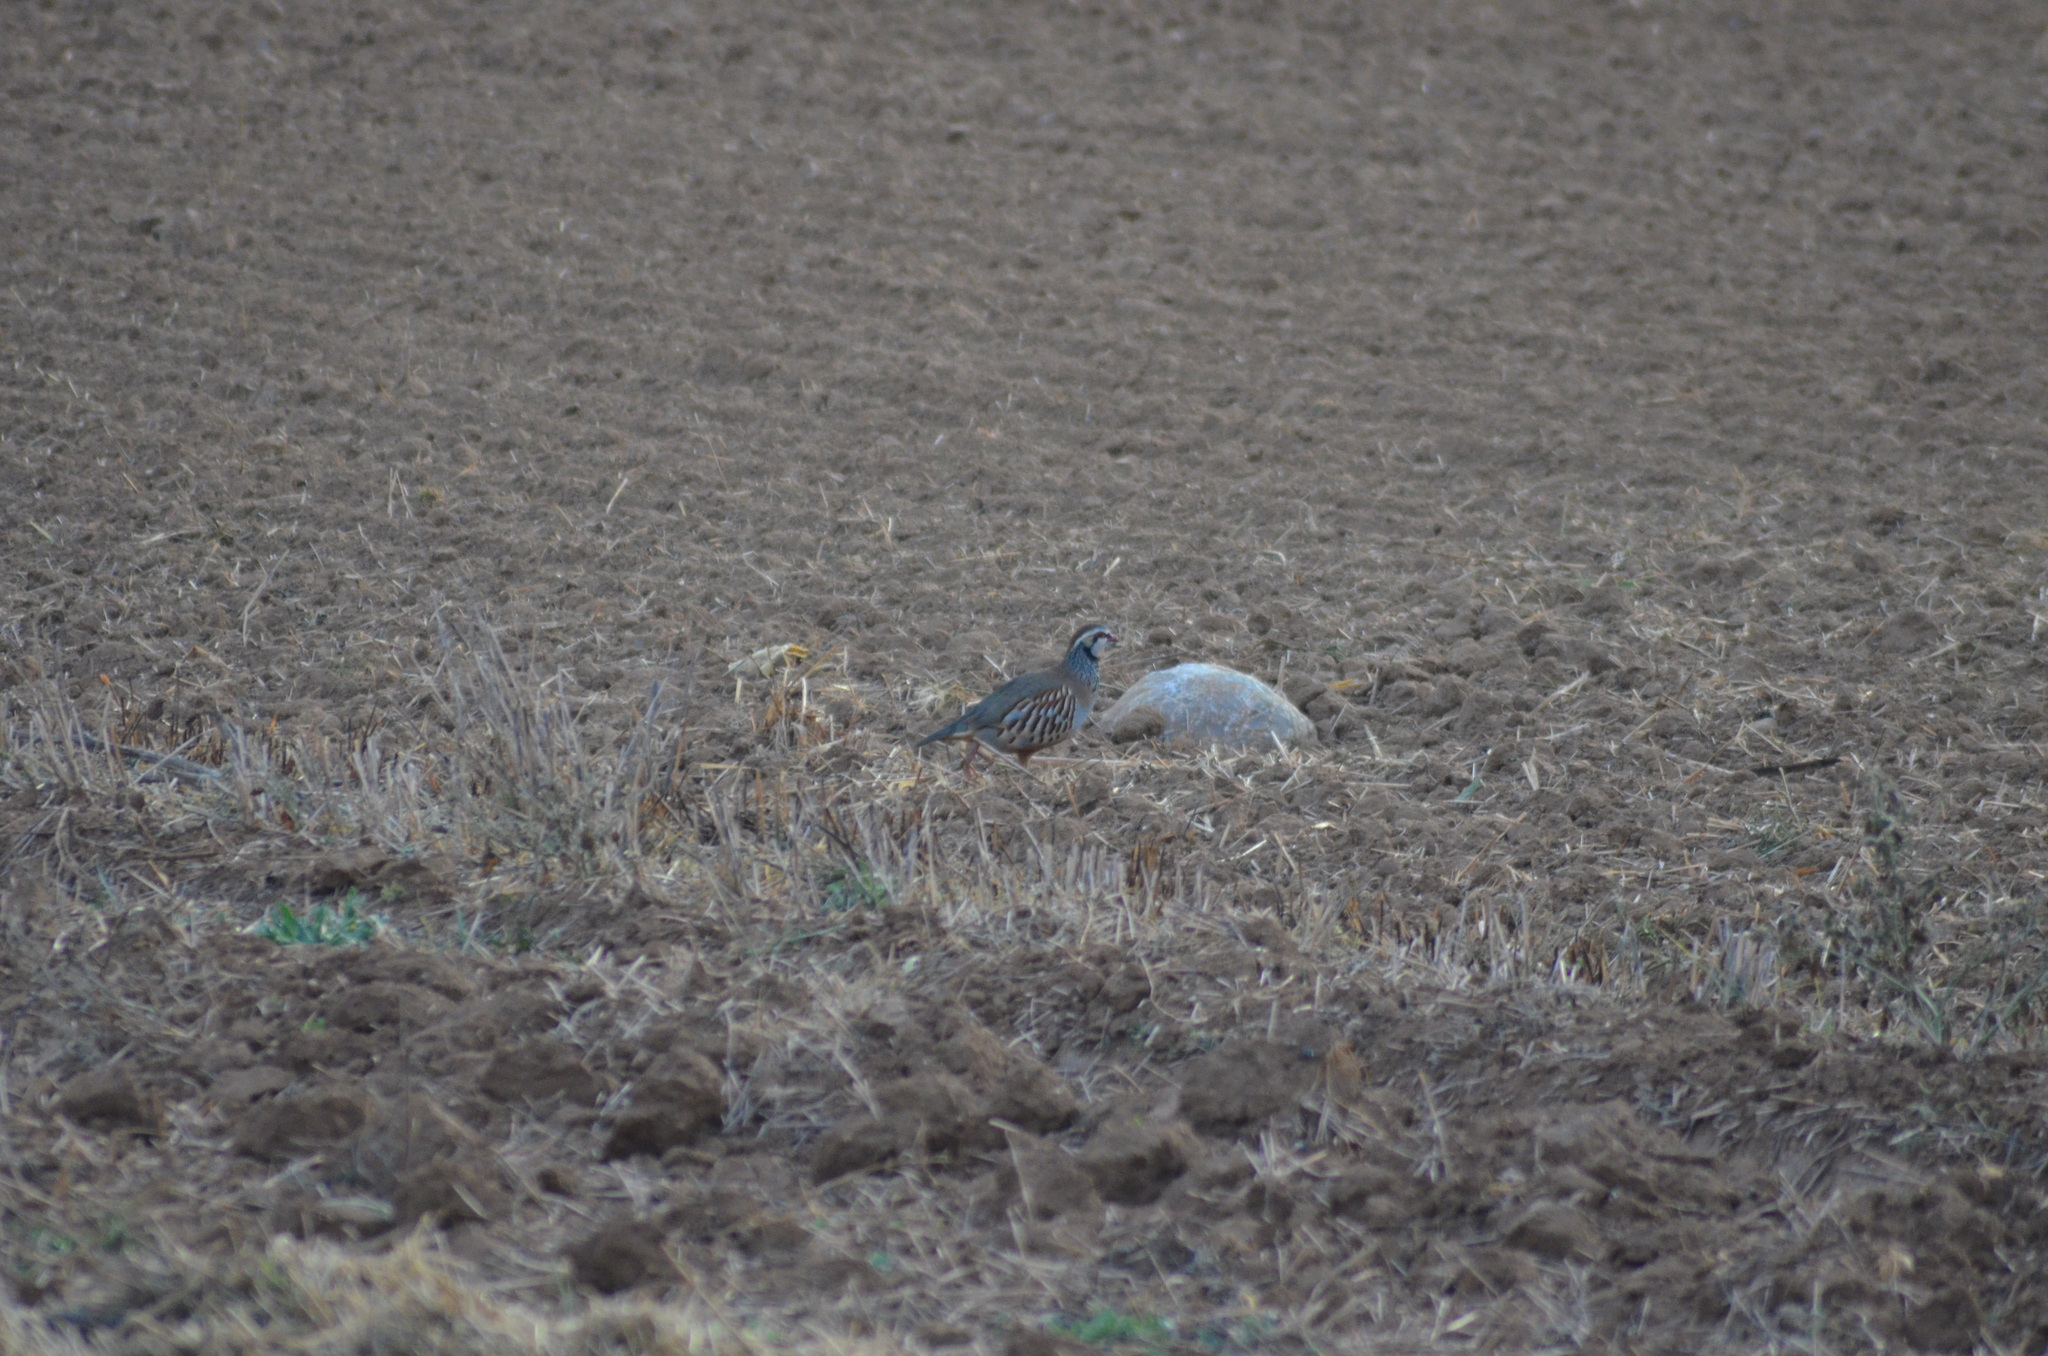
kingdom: Animalia
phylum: Chordata
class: Aves
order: Galliformes
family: Phasianidae
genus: Alectoris
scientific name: Alectoris rufa
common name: Red-legged partridge
